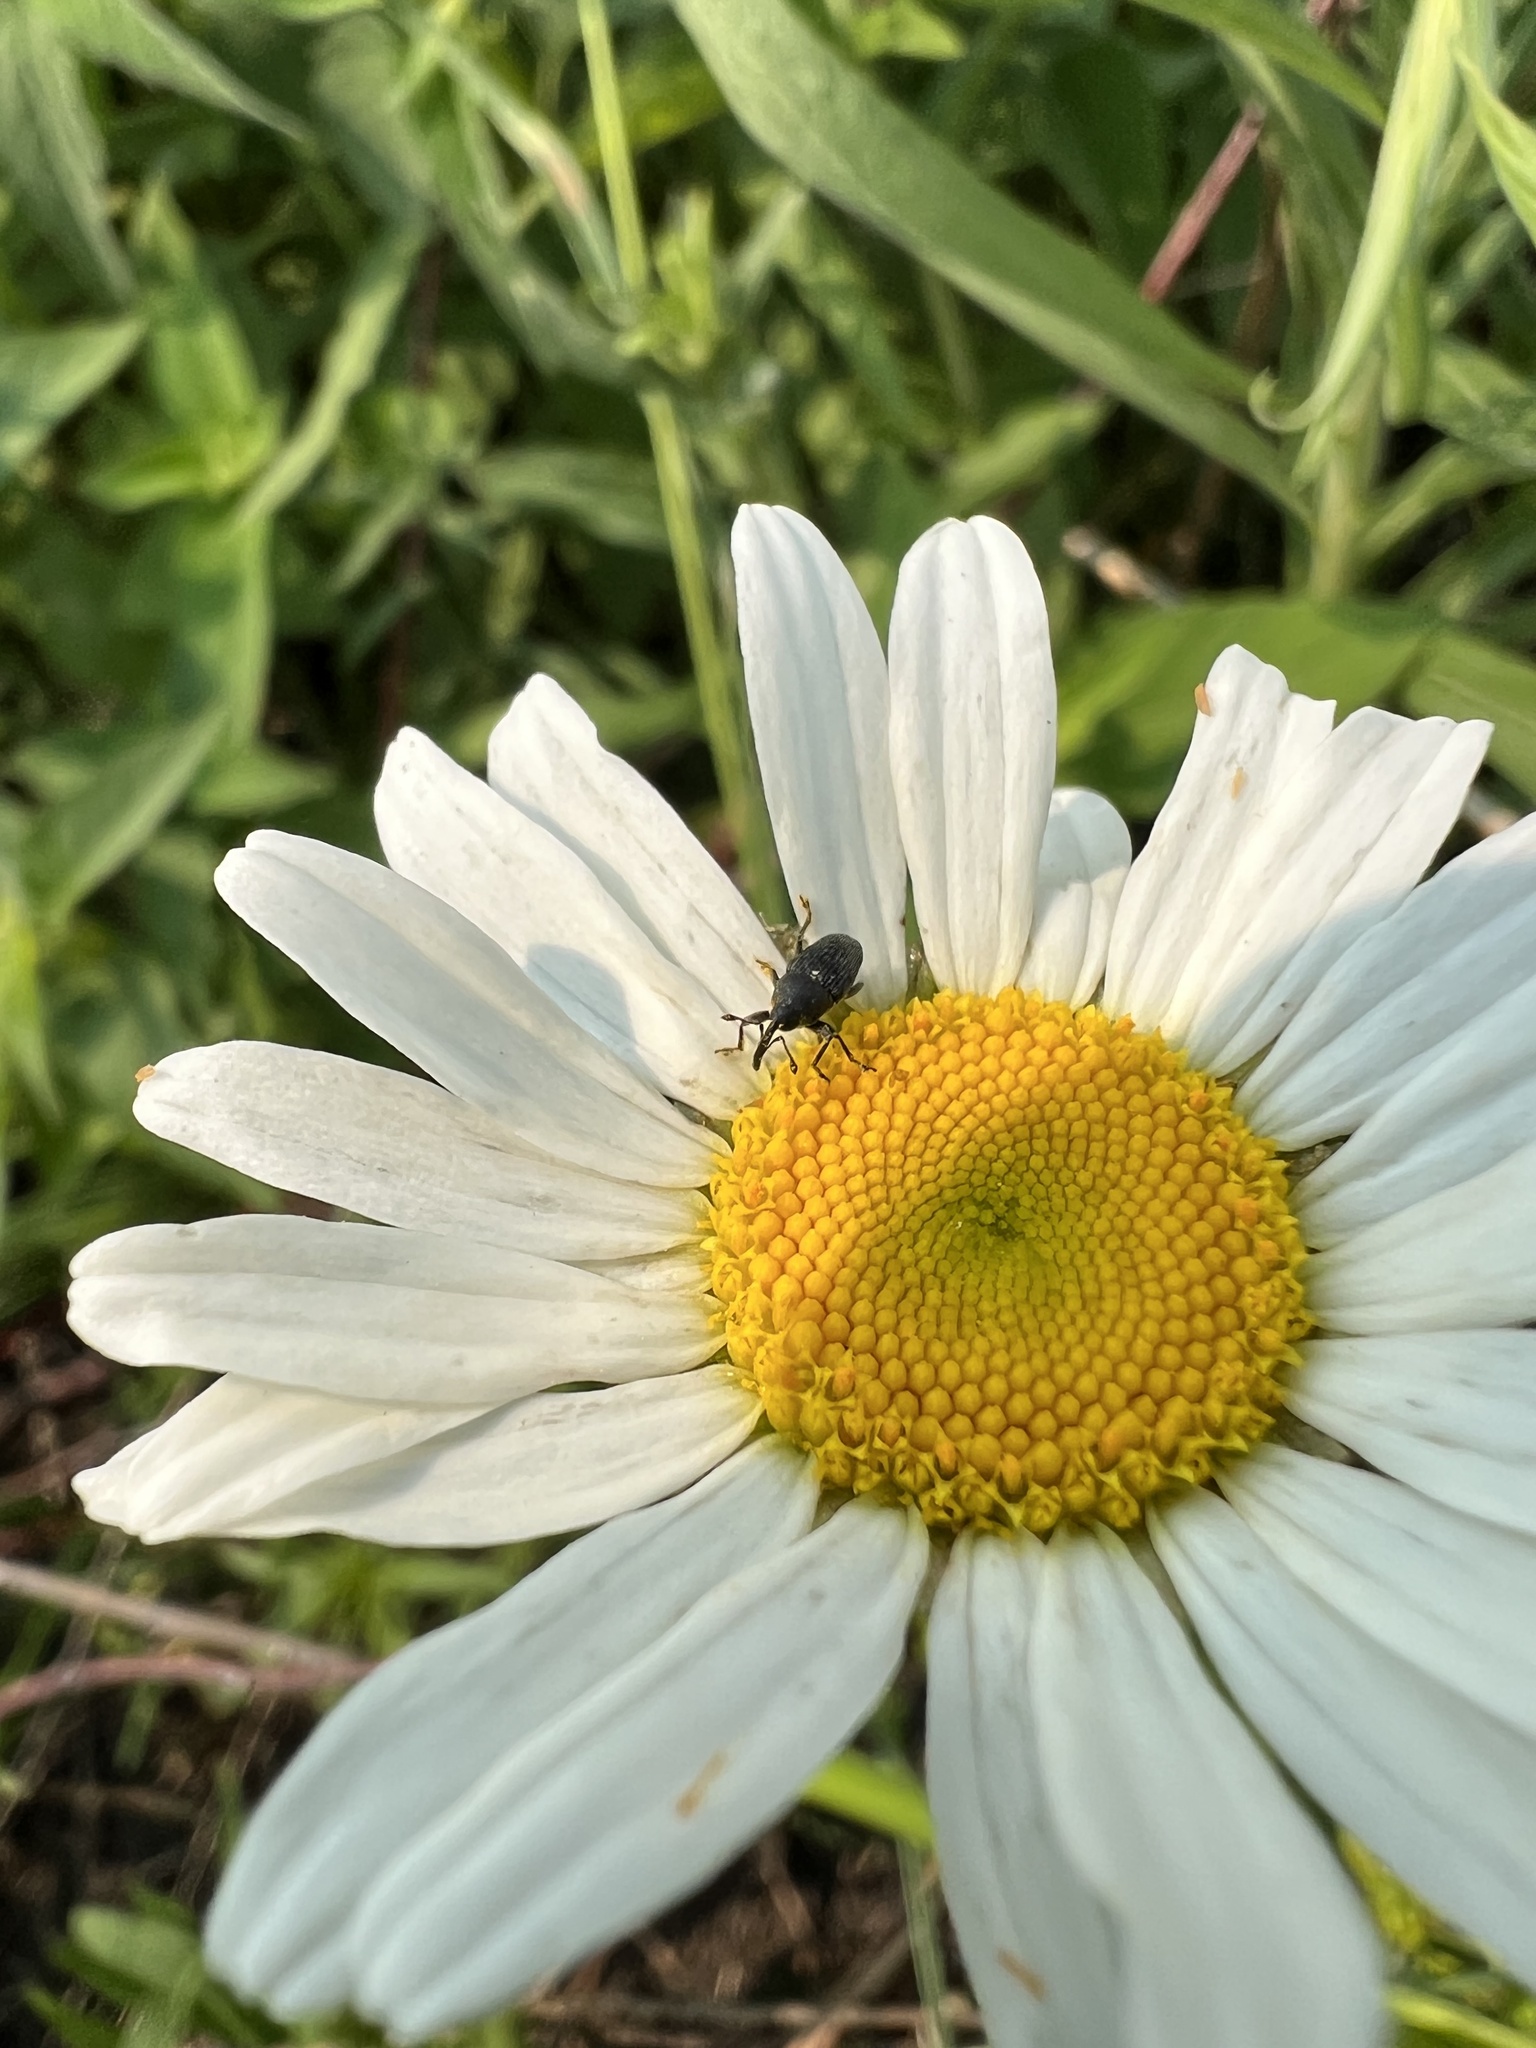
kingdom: Animalia
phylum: Arthropoda
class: Insecta
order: Coleoptera
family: Curculionidae
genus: Odontocorynus
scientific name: Odontocorynus salebrosus
